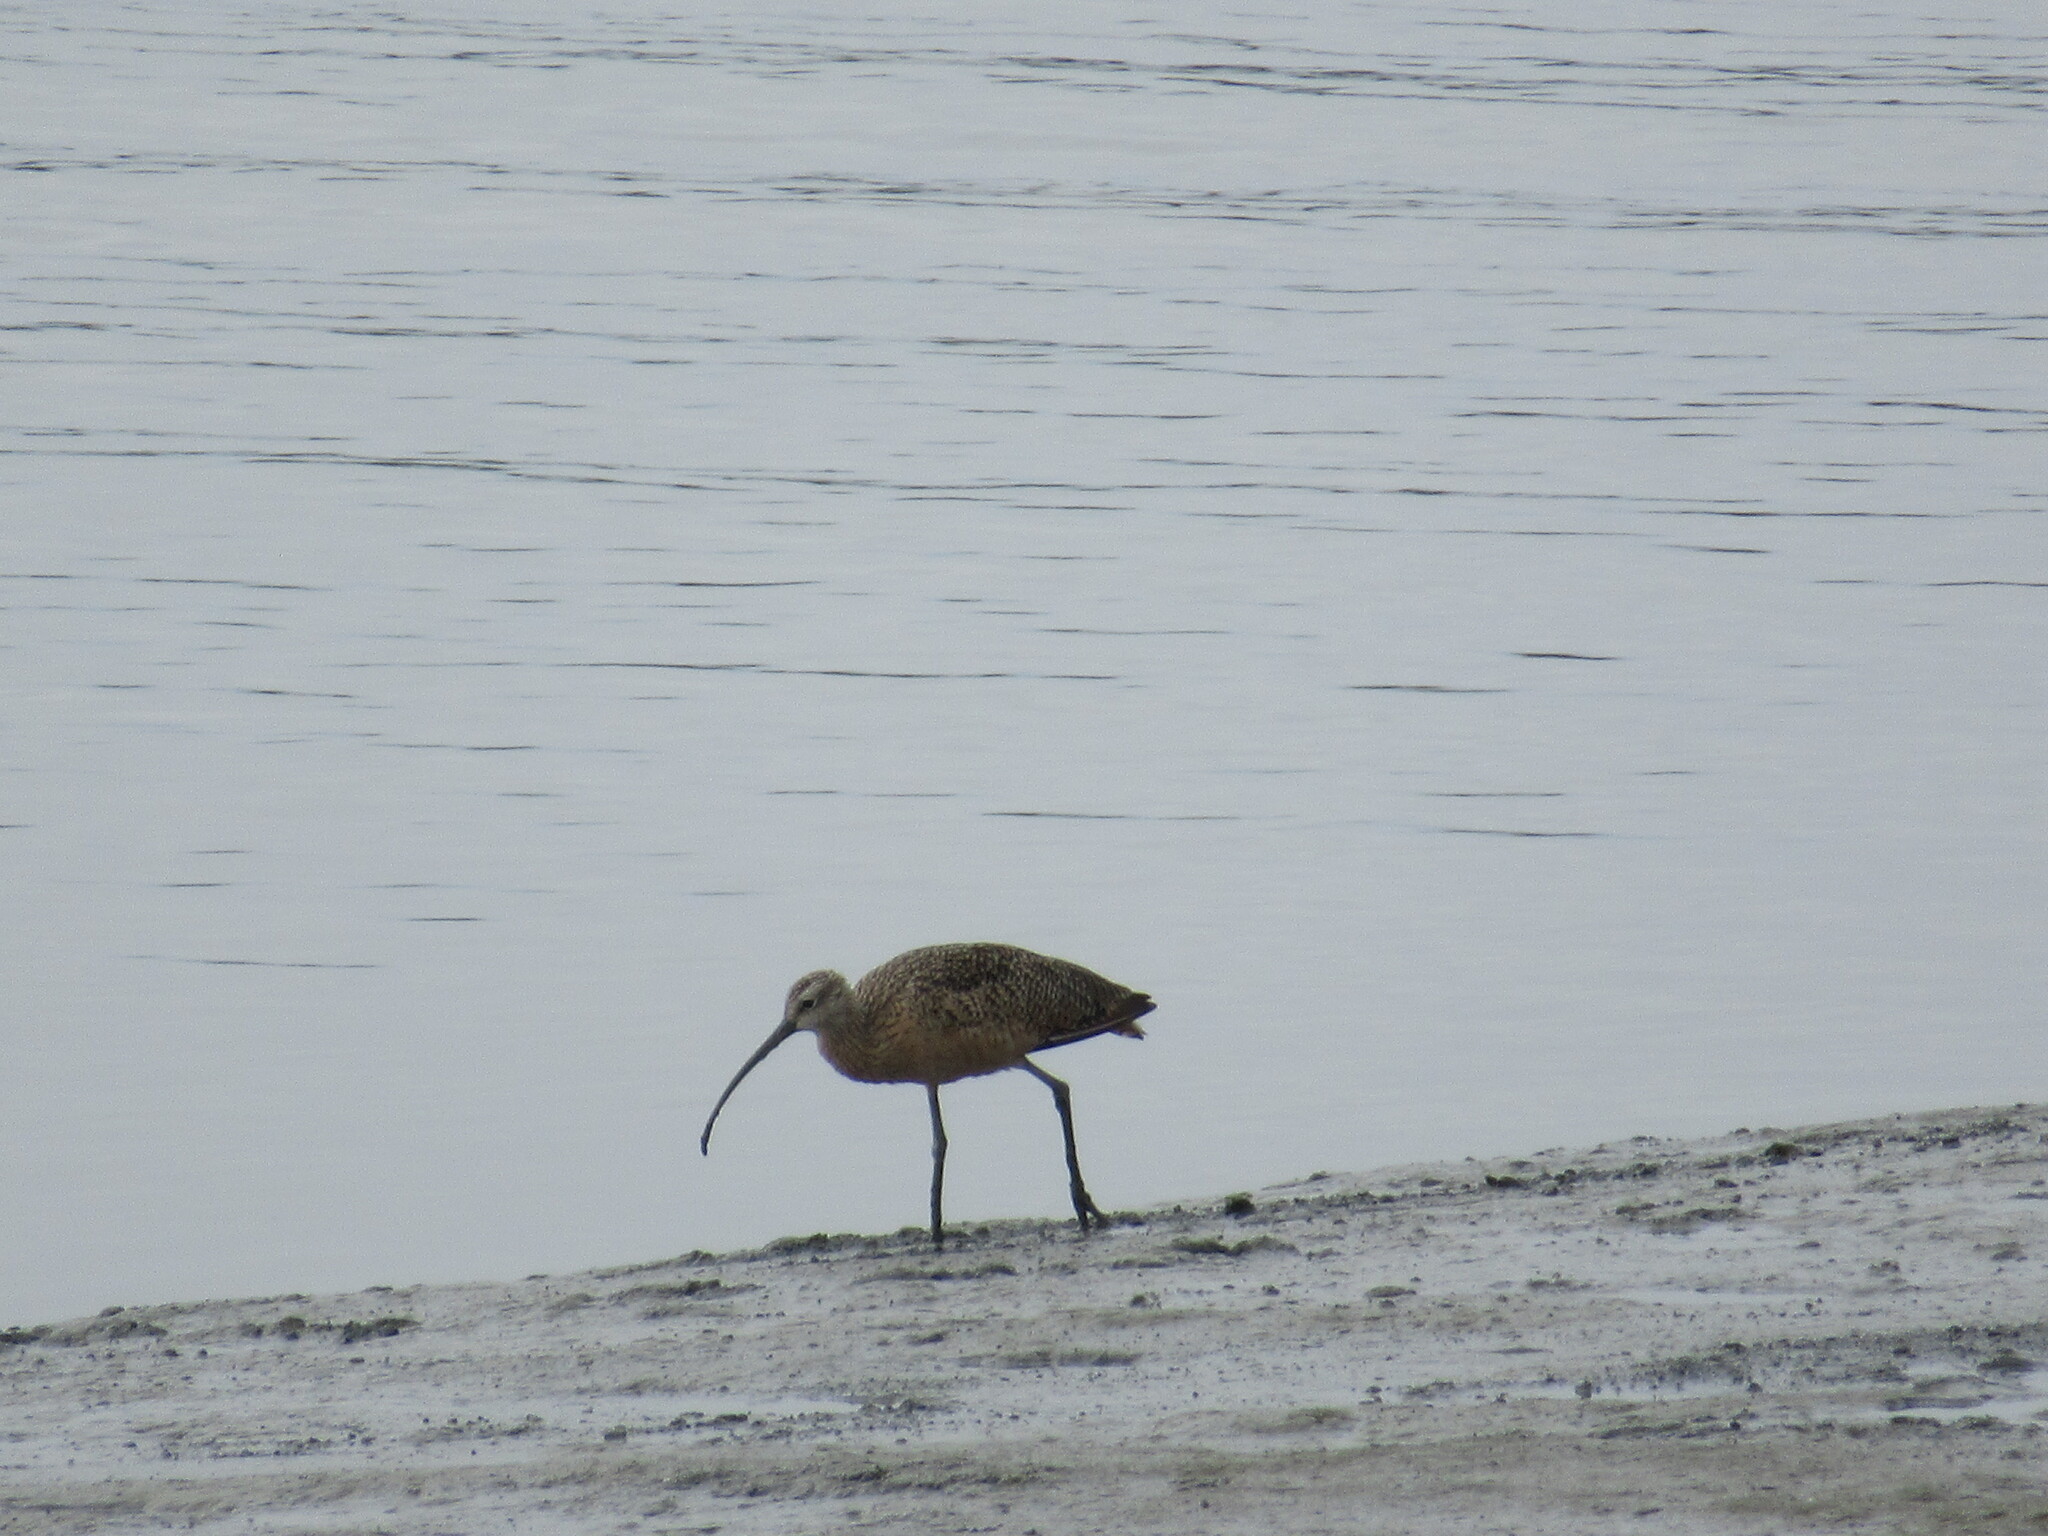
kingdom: Animalia
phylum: Chordata
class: Aves
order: Charadriiformes
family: Scolopacidae
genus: Numenius
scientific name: Numenius americanus
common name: Long-billed curlew
